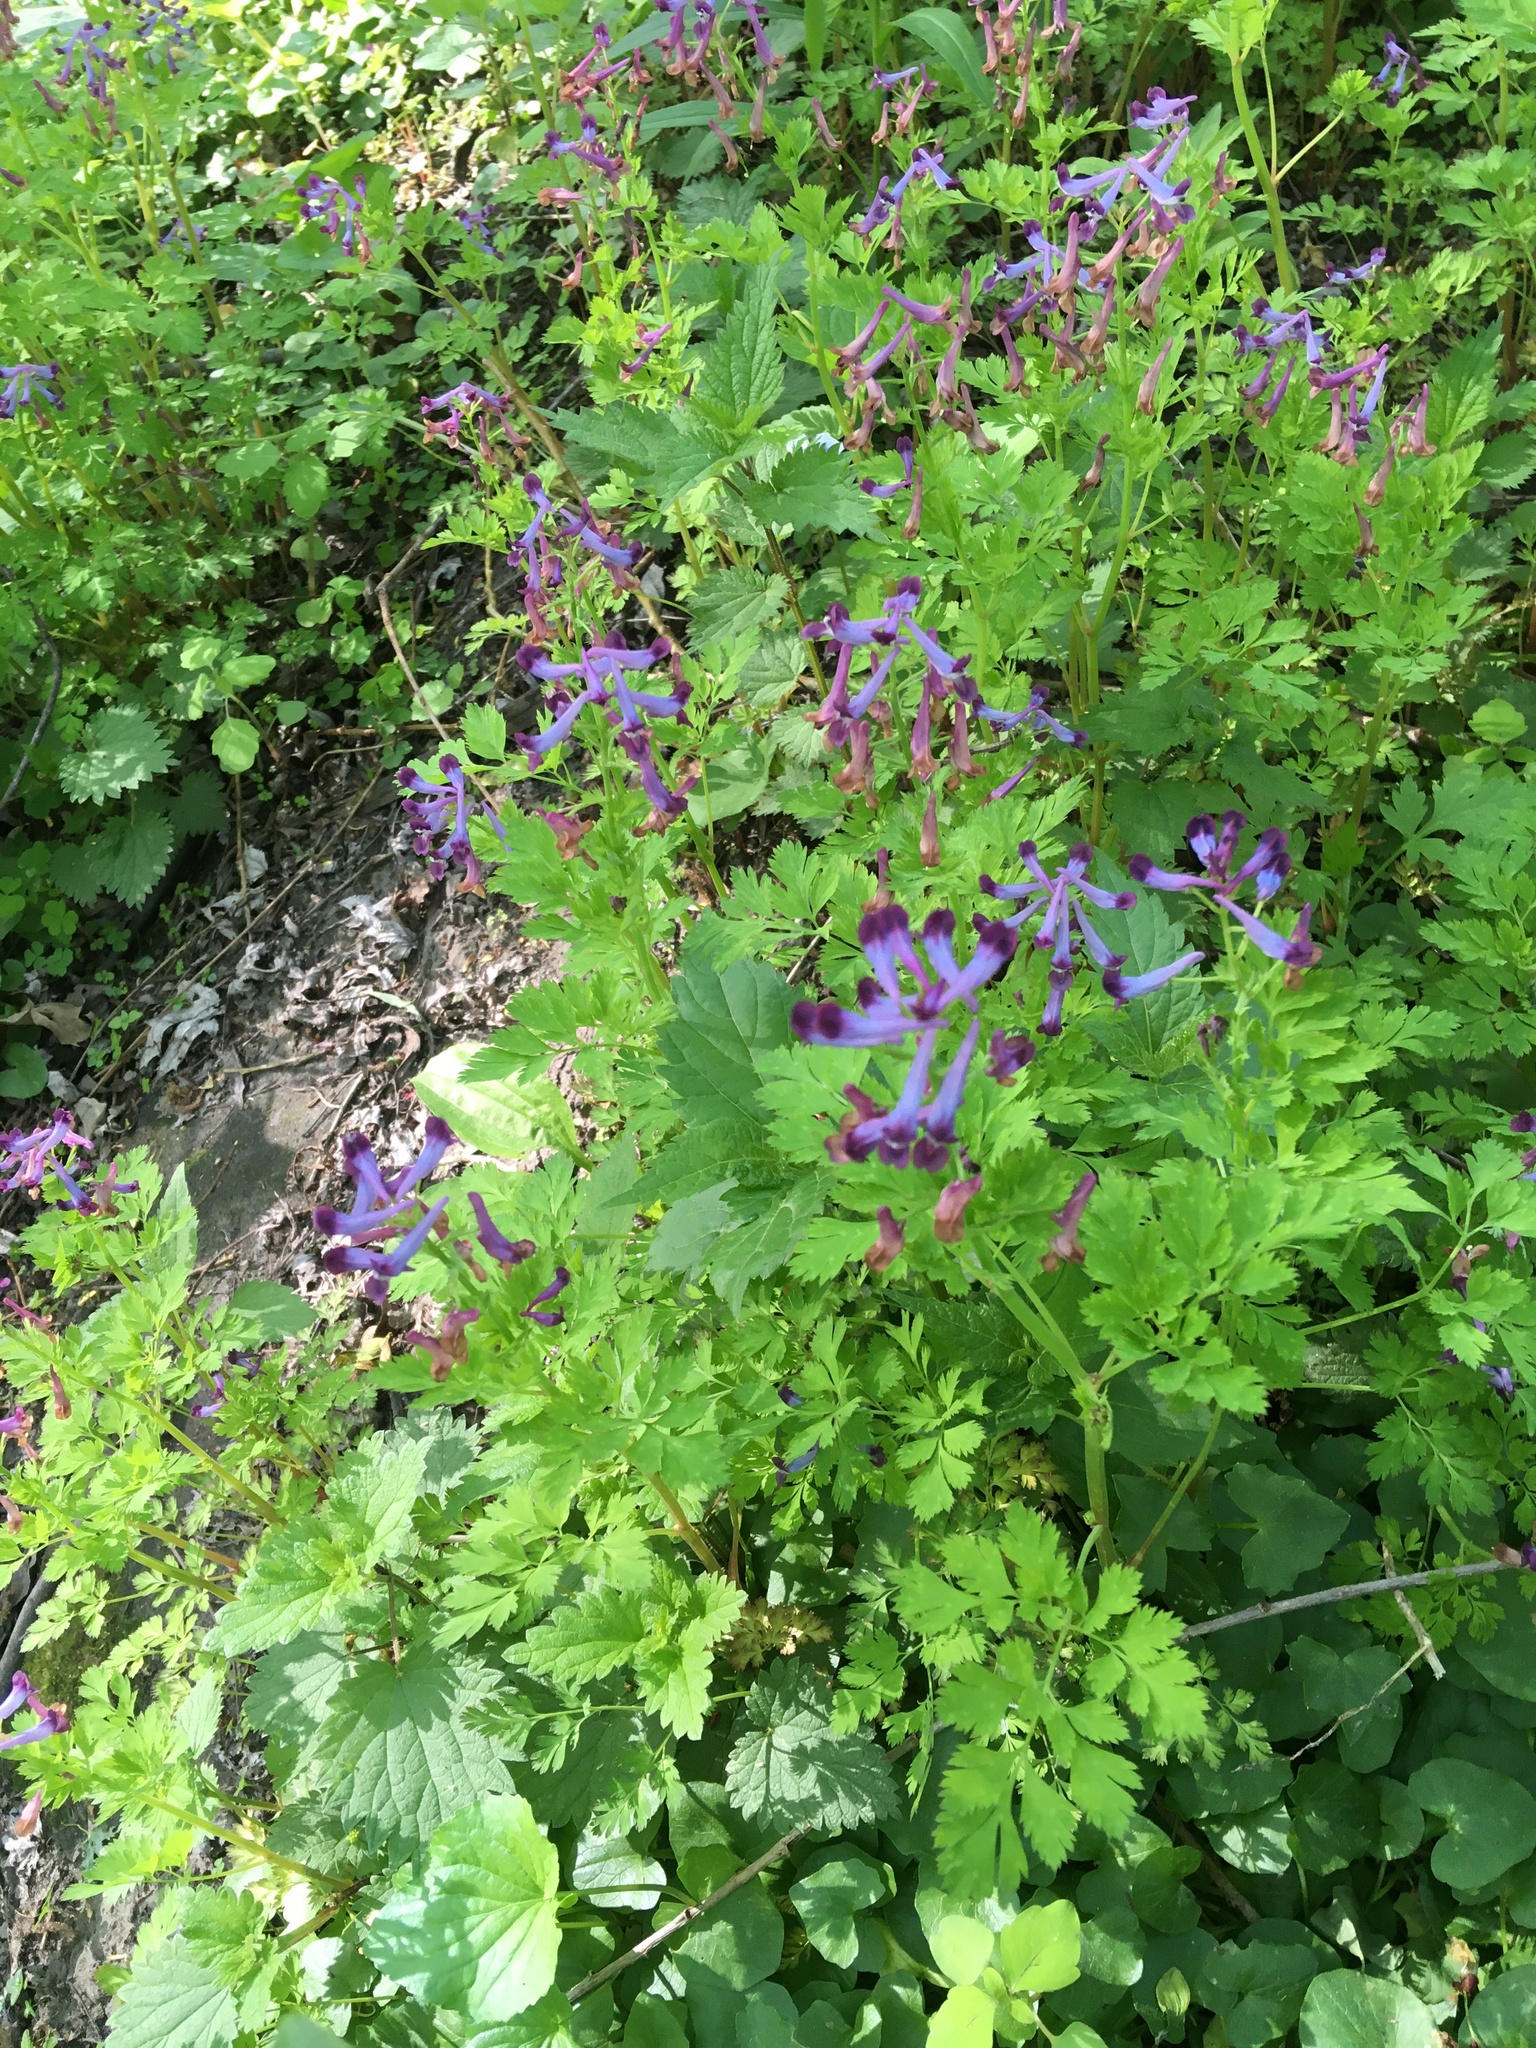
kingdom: Plantae
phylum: Tracheophyta
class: Magnoliopsida
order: Ranunculales
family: Papaveraceae
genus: Corydalis
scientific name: Corydalis incisa
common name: Incised fumewort
